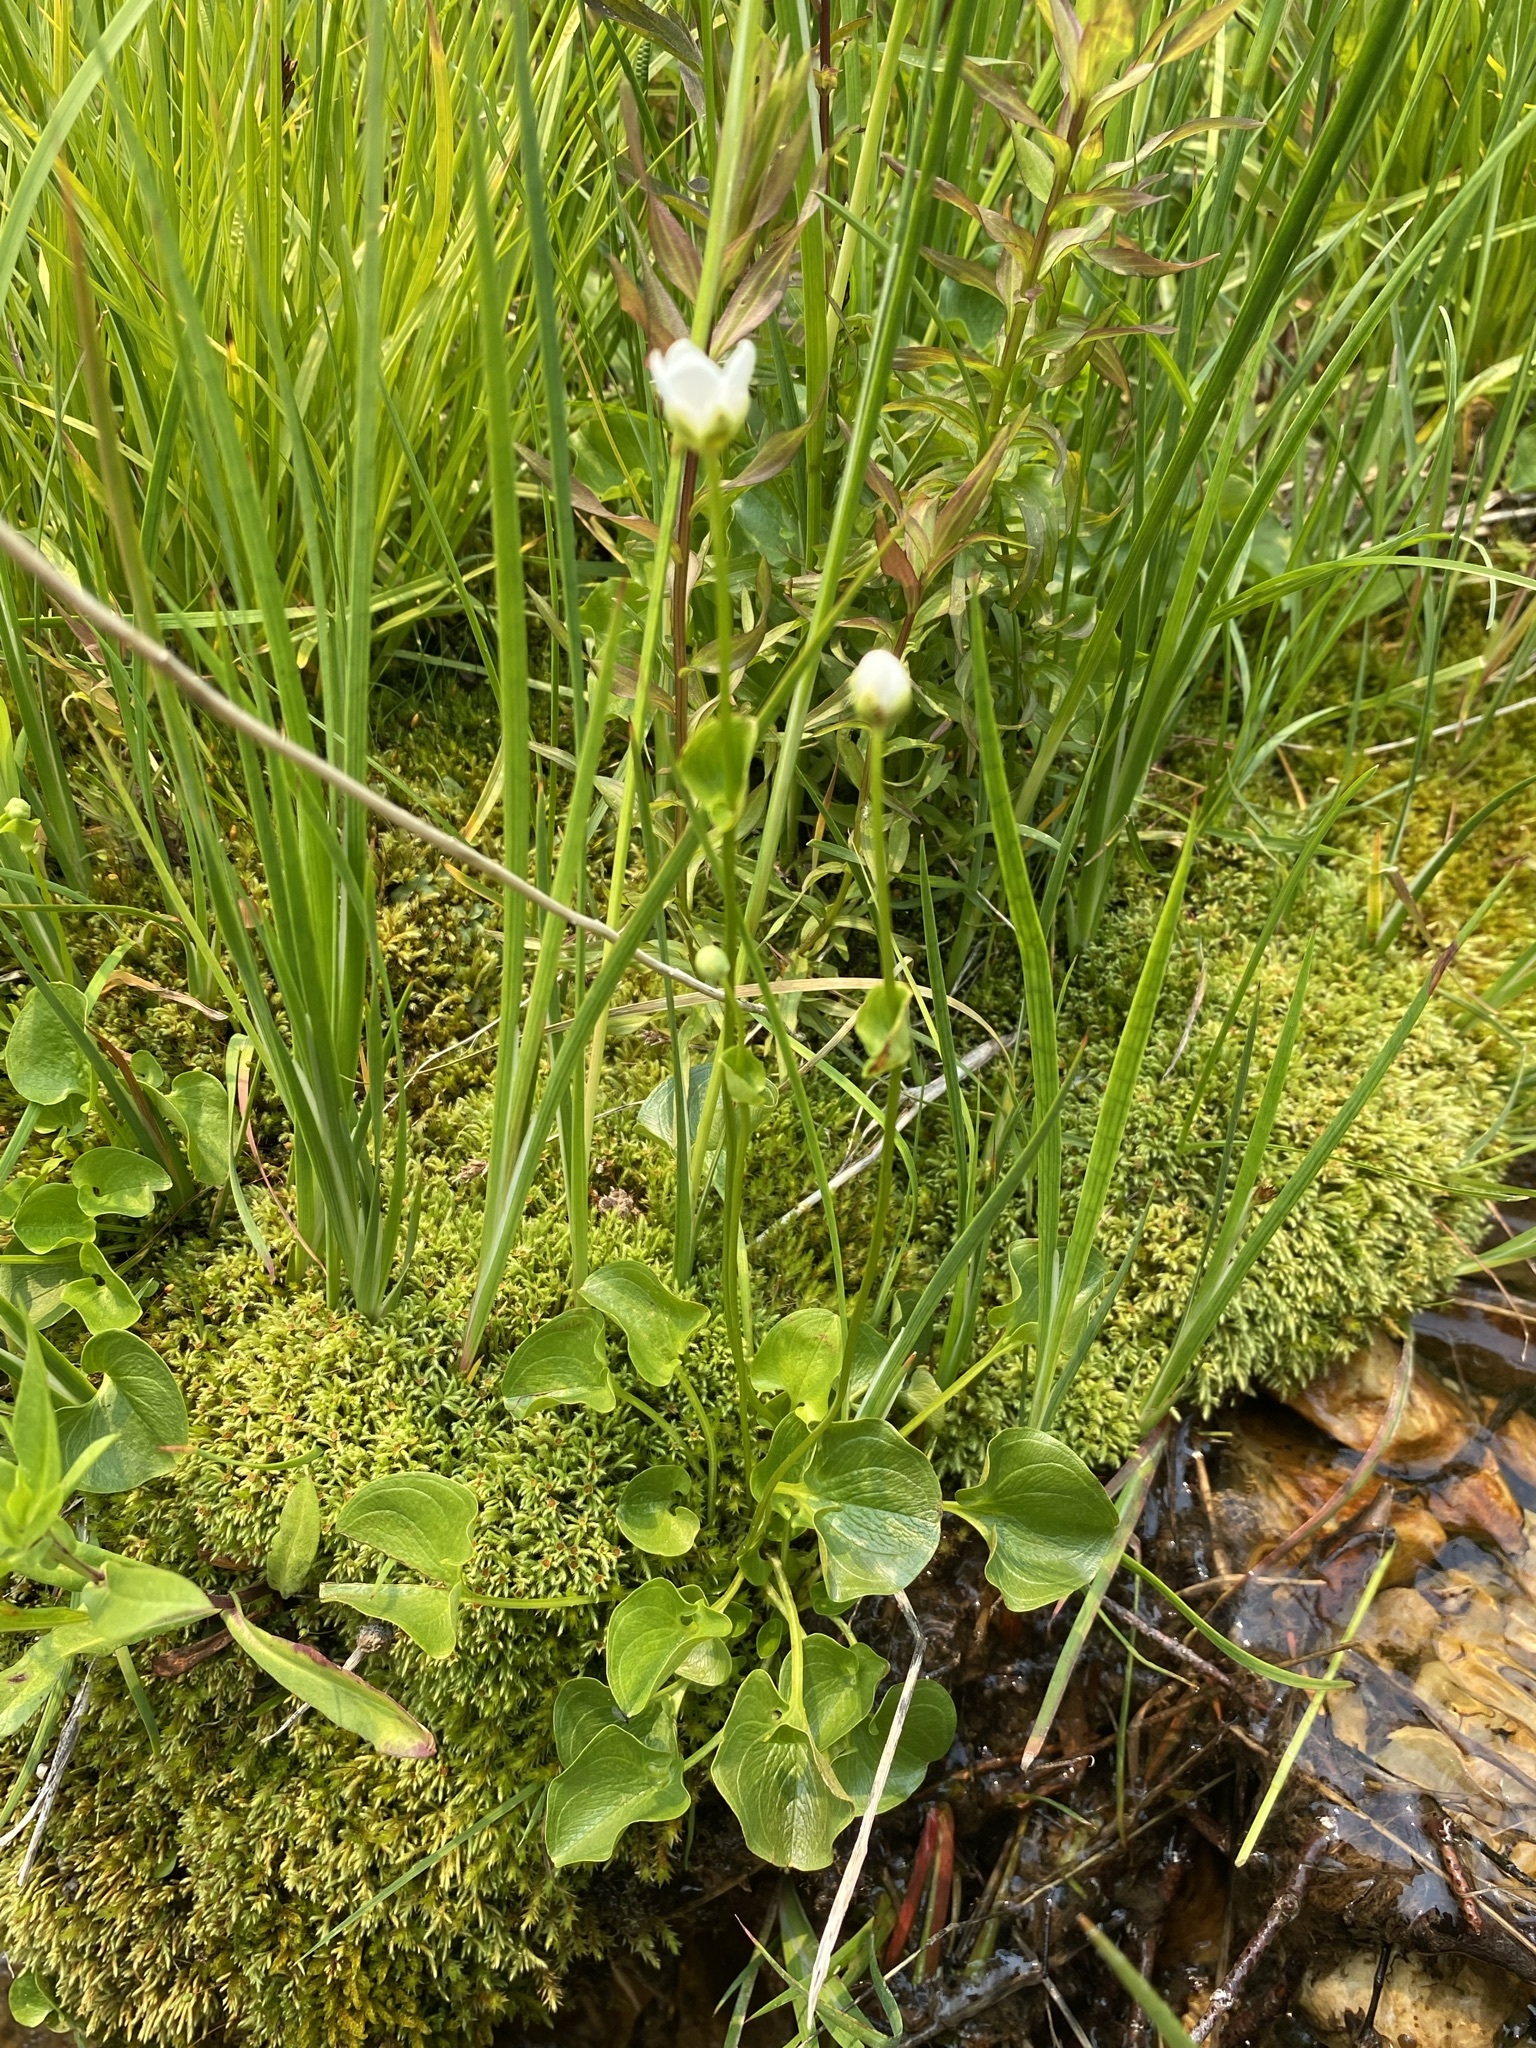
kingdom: Plantae
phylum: Tracheophyta
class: Magnoliopsida
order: Celastrales
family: Parnassiaceae
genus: Parnassia
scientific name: Parnassia fimbriata
